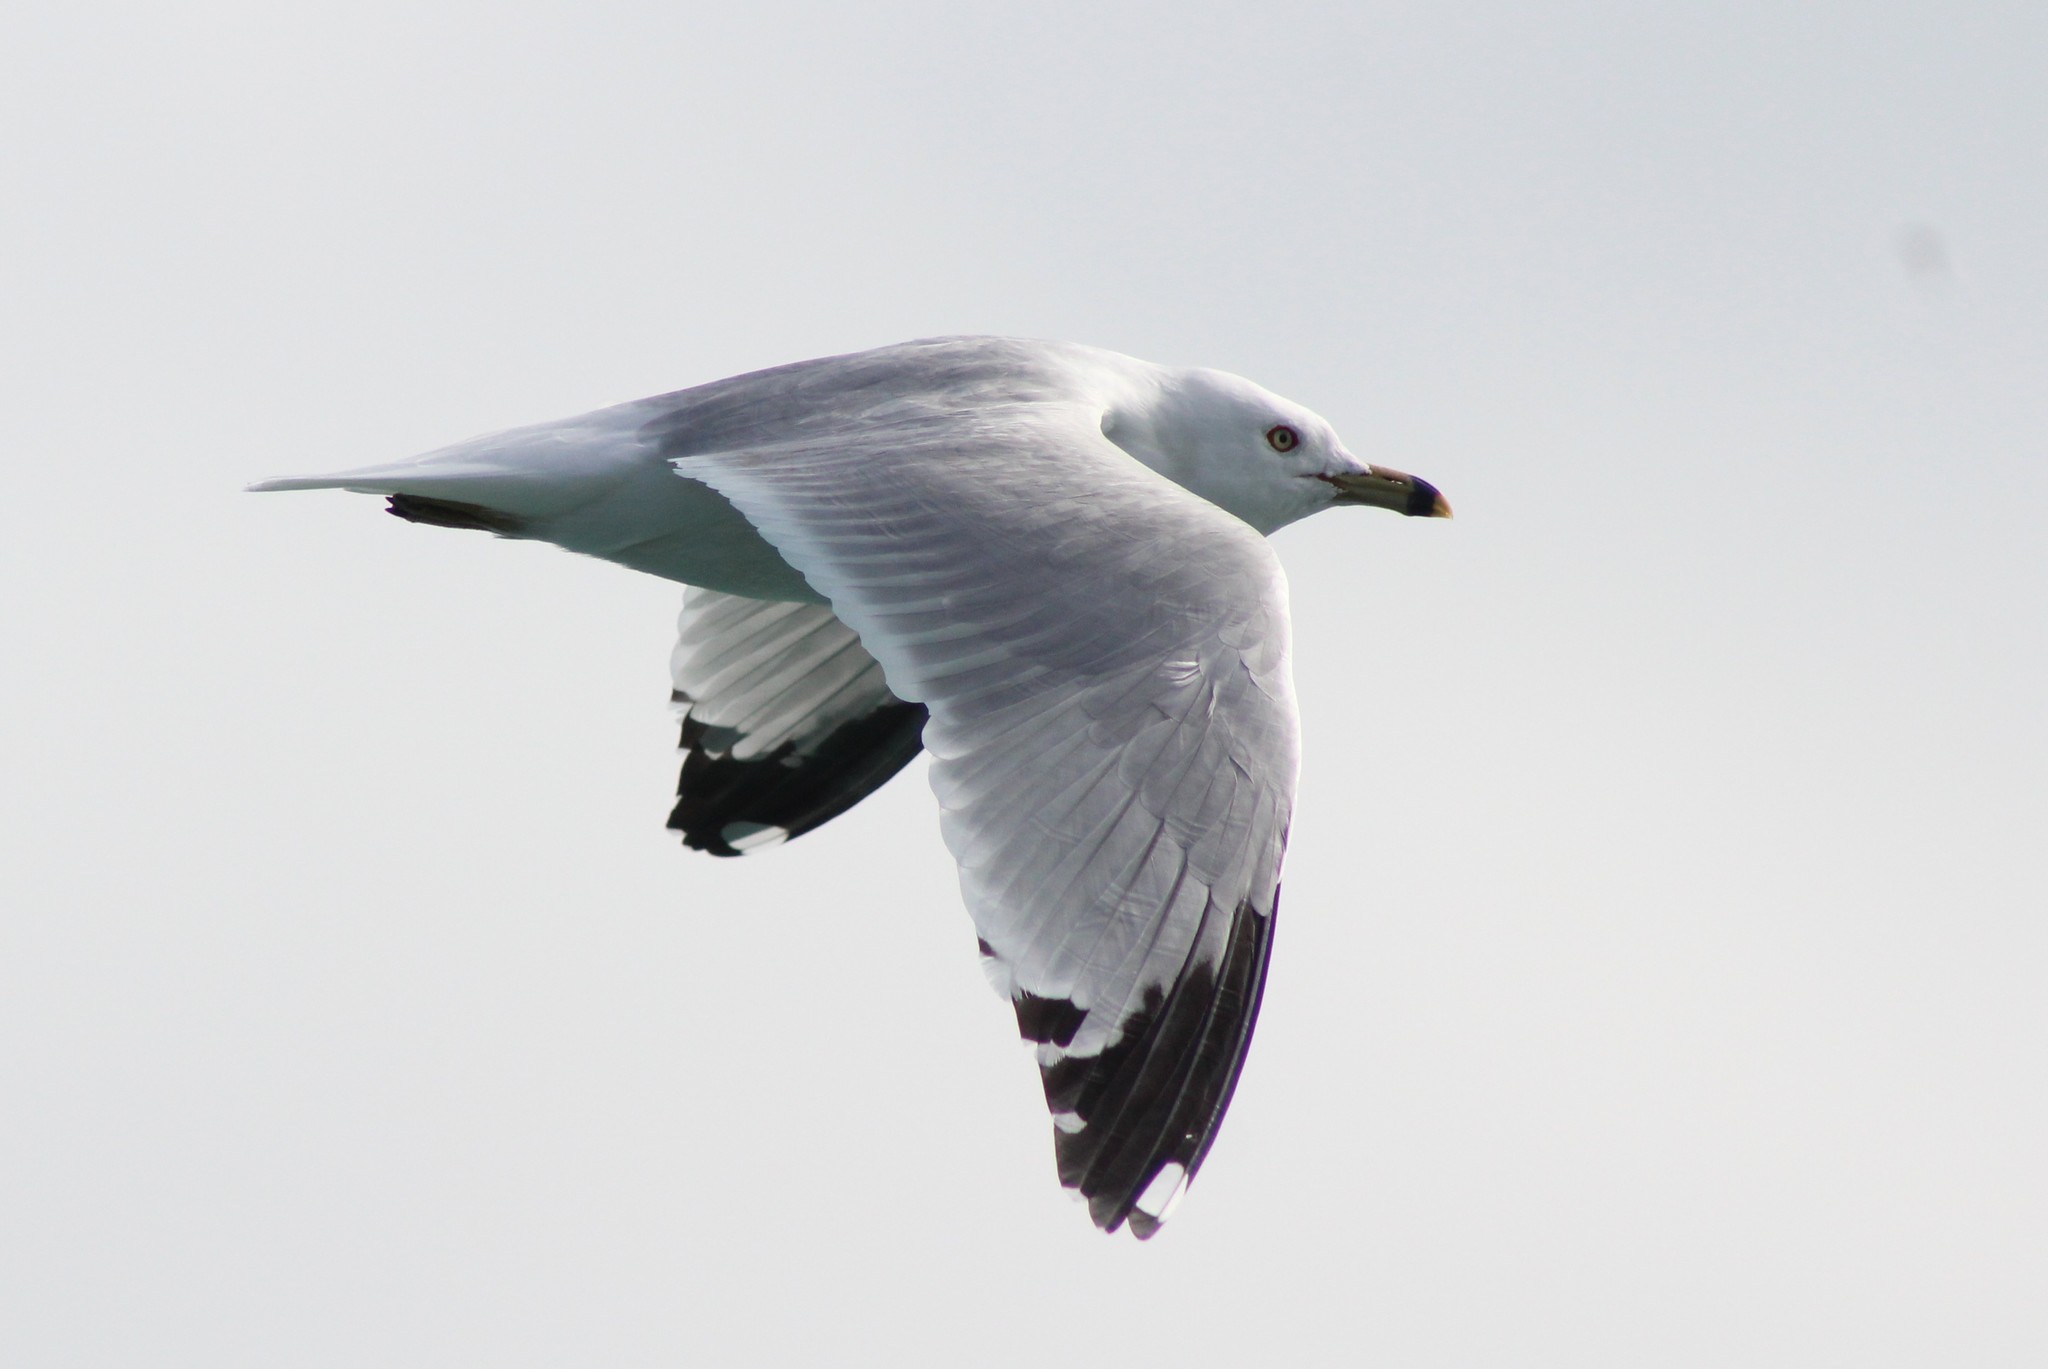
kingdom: Animalia
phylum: Chordata
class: Aves
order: Charadriiformes
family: Laridae
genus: Larus
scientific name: Larus delawarensis
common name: Ring-billed gull
